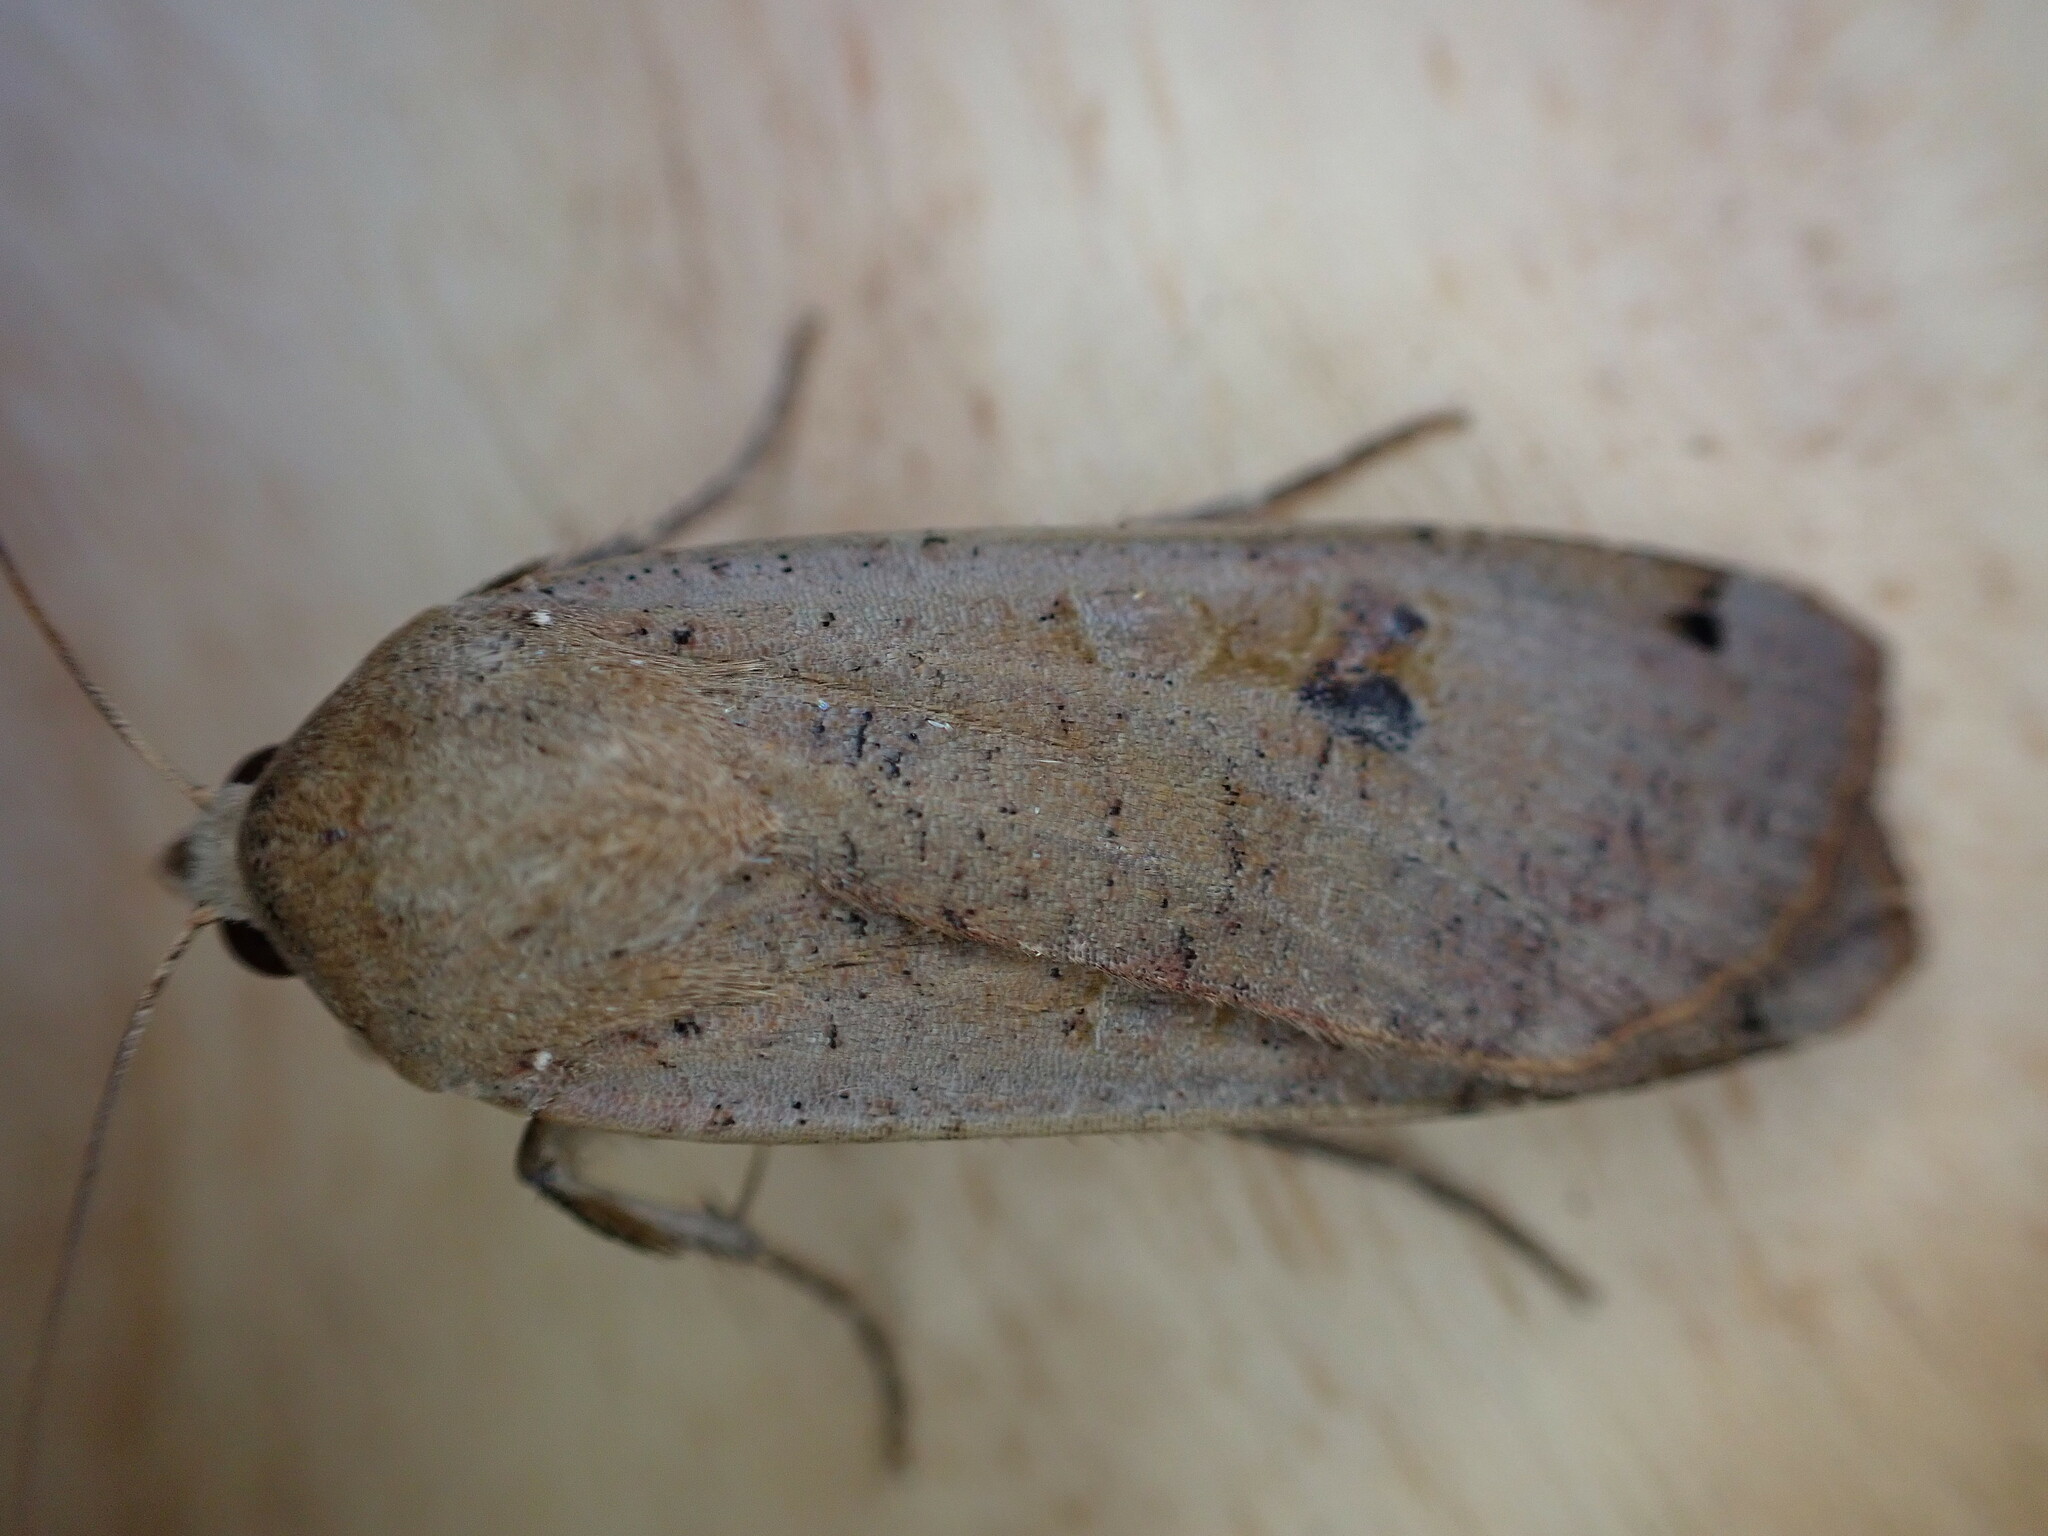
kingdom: Animalia
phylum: Arthropoda
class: Insecta
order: Lepidoptera
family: Noctuidae
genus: Noctua
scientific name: Noctua pronuba
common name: Large yellow underwing
